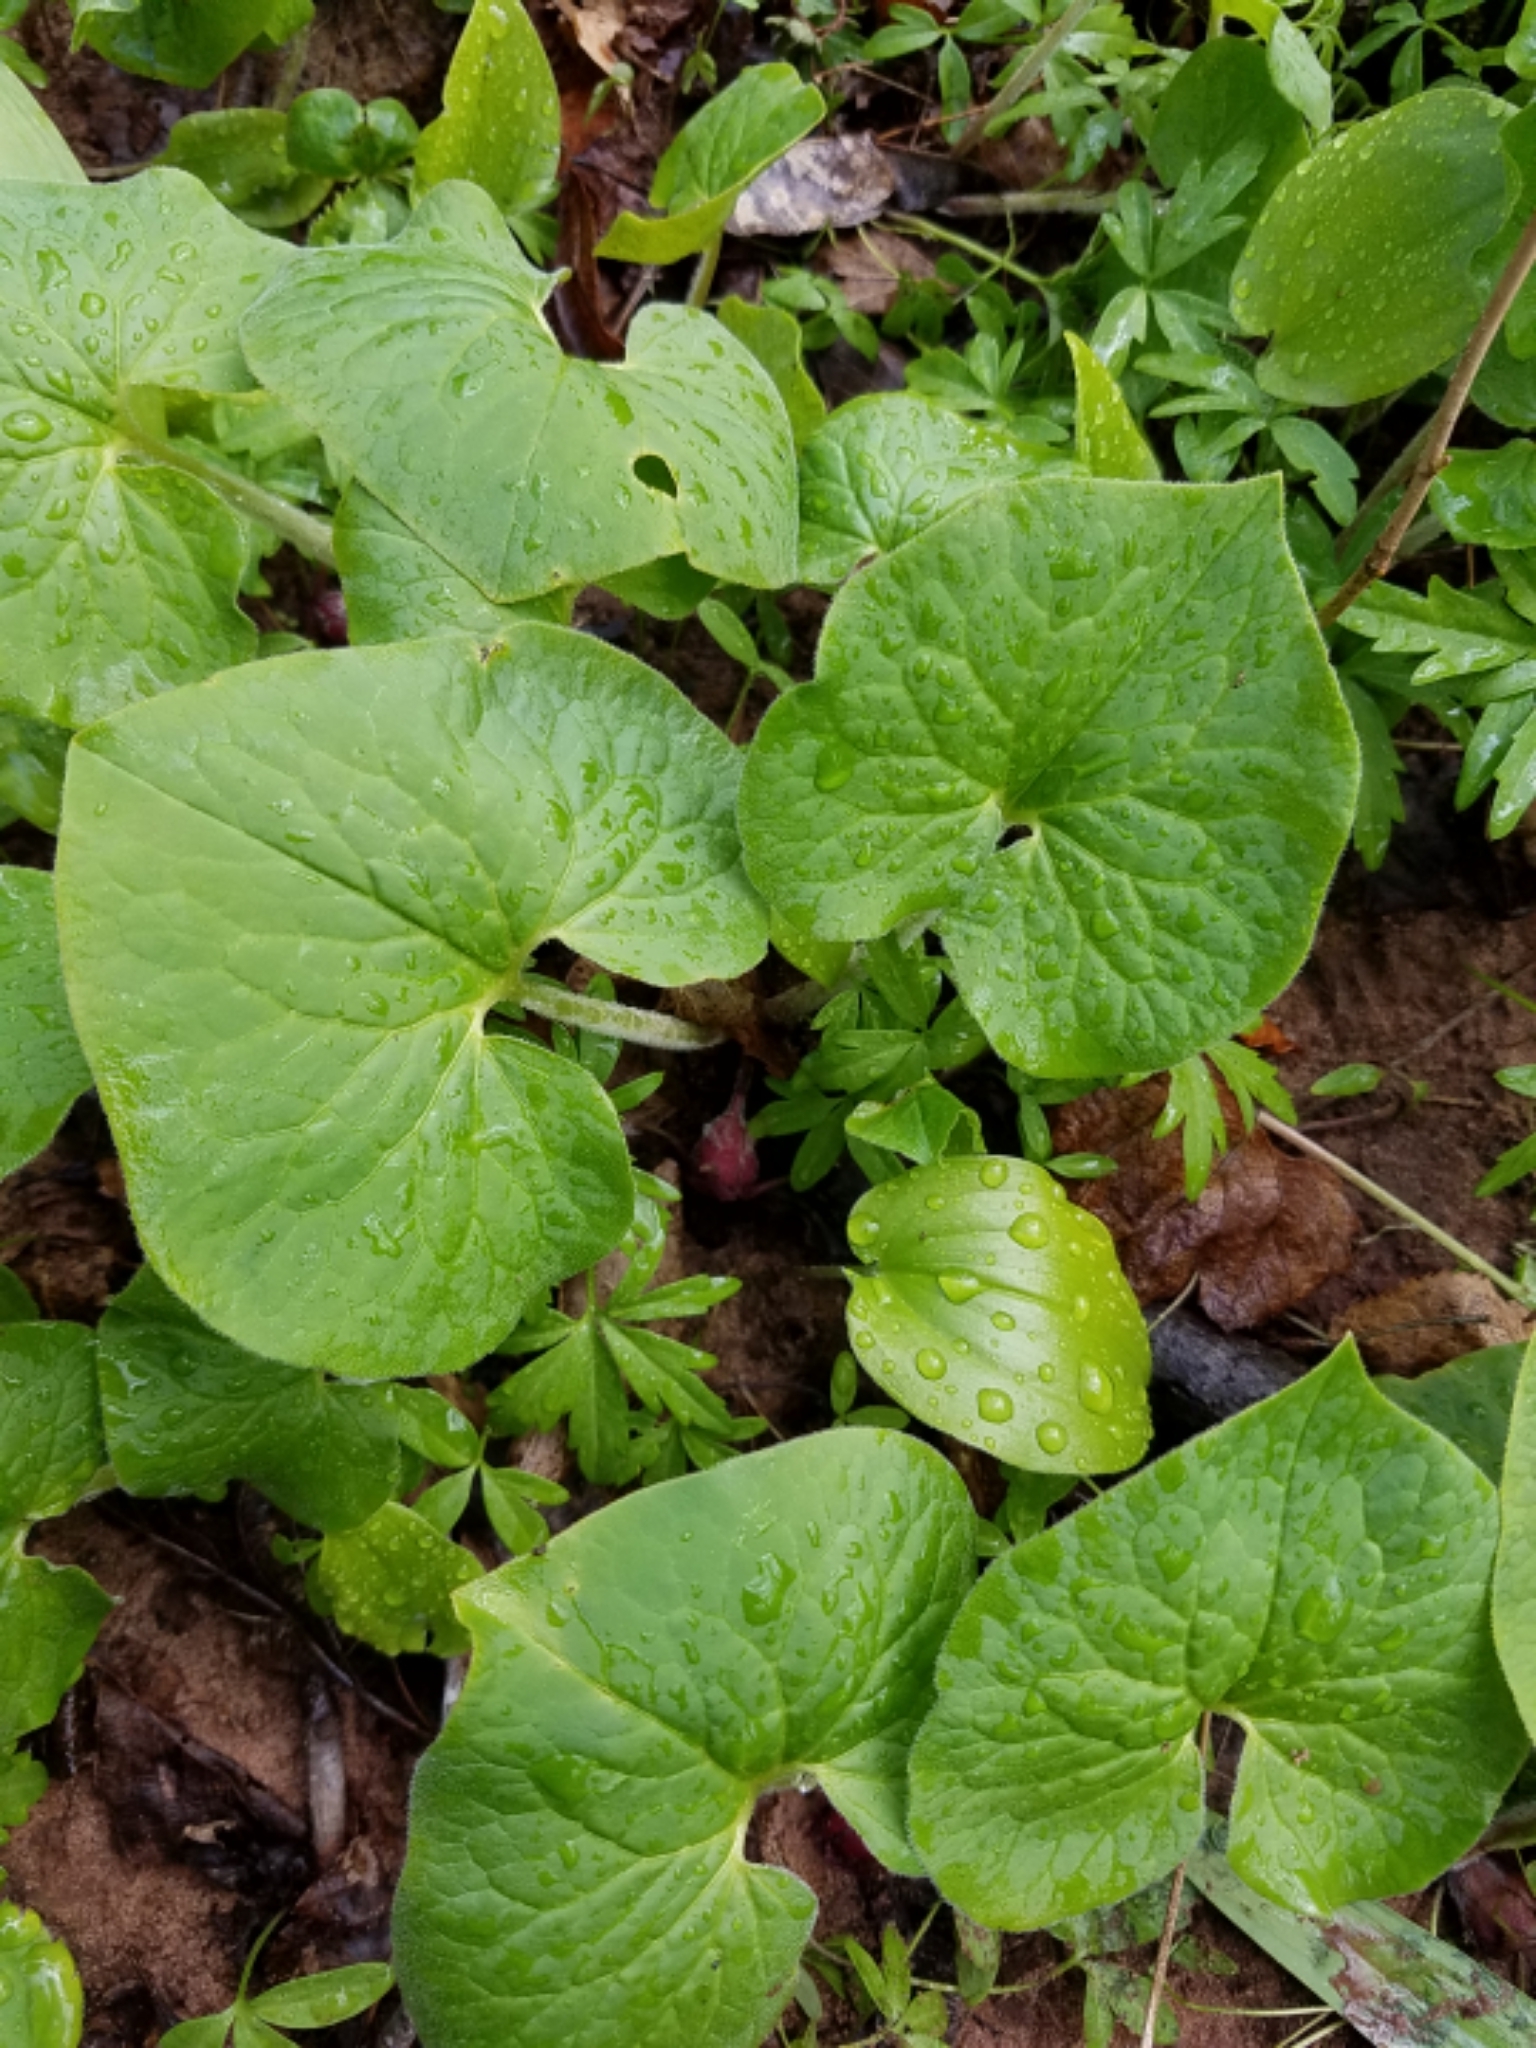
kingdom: Plantae
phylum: Tracheophyta
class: Magnoliopsida
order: Piperales
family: Aristolochiaceae
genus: Asarum
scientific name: Asarum canadense
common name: Wild ginger
